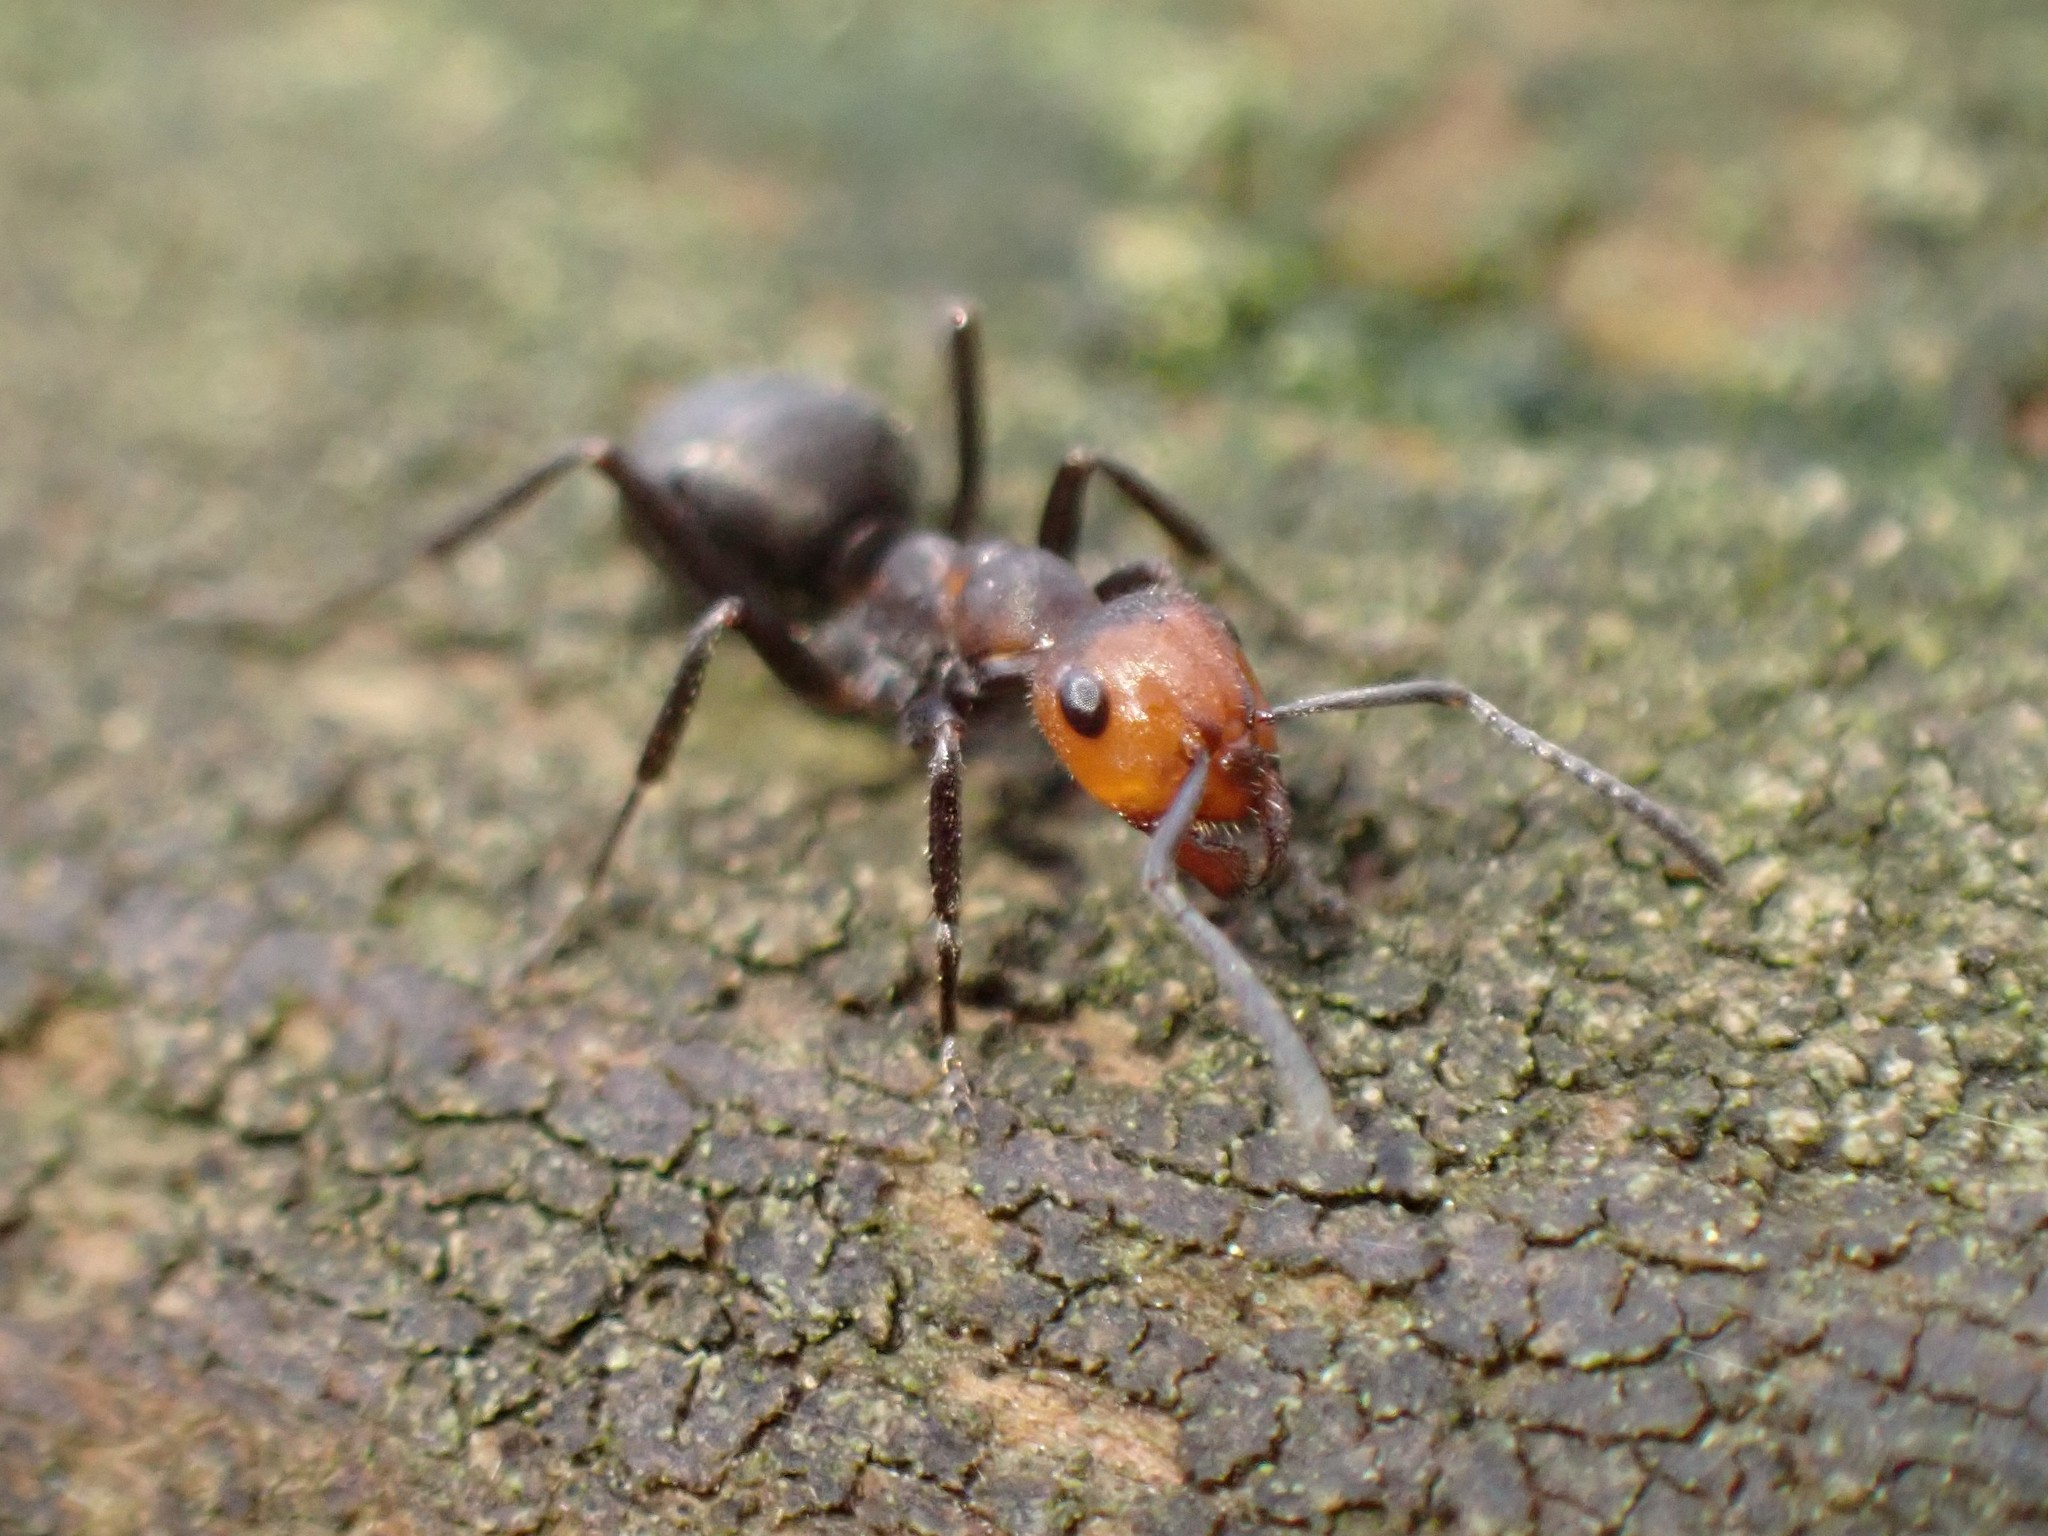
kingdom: Animalia
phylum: Arthropoda
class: Insecta
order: Hymenoptera
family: Formicidae
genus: Formica
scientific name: Formica obscuripes
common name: Western thatching ant
